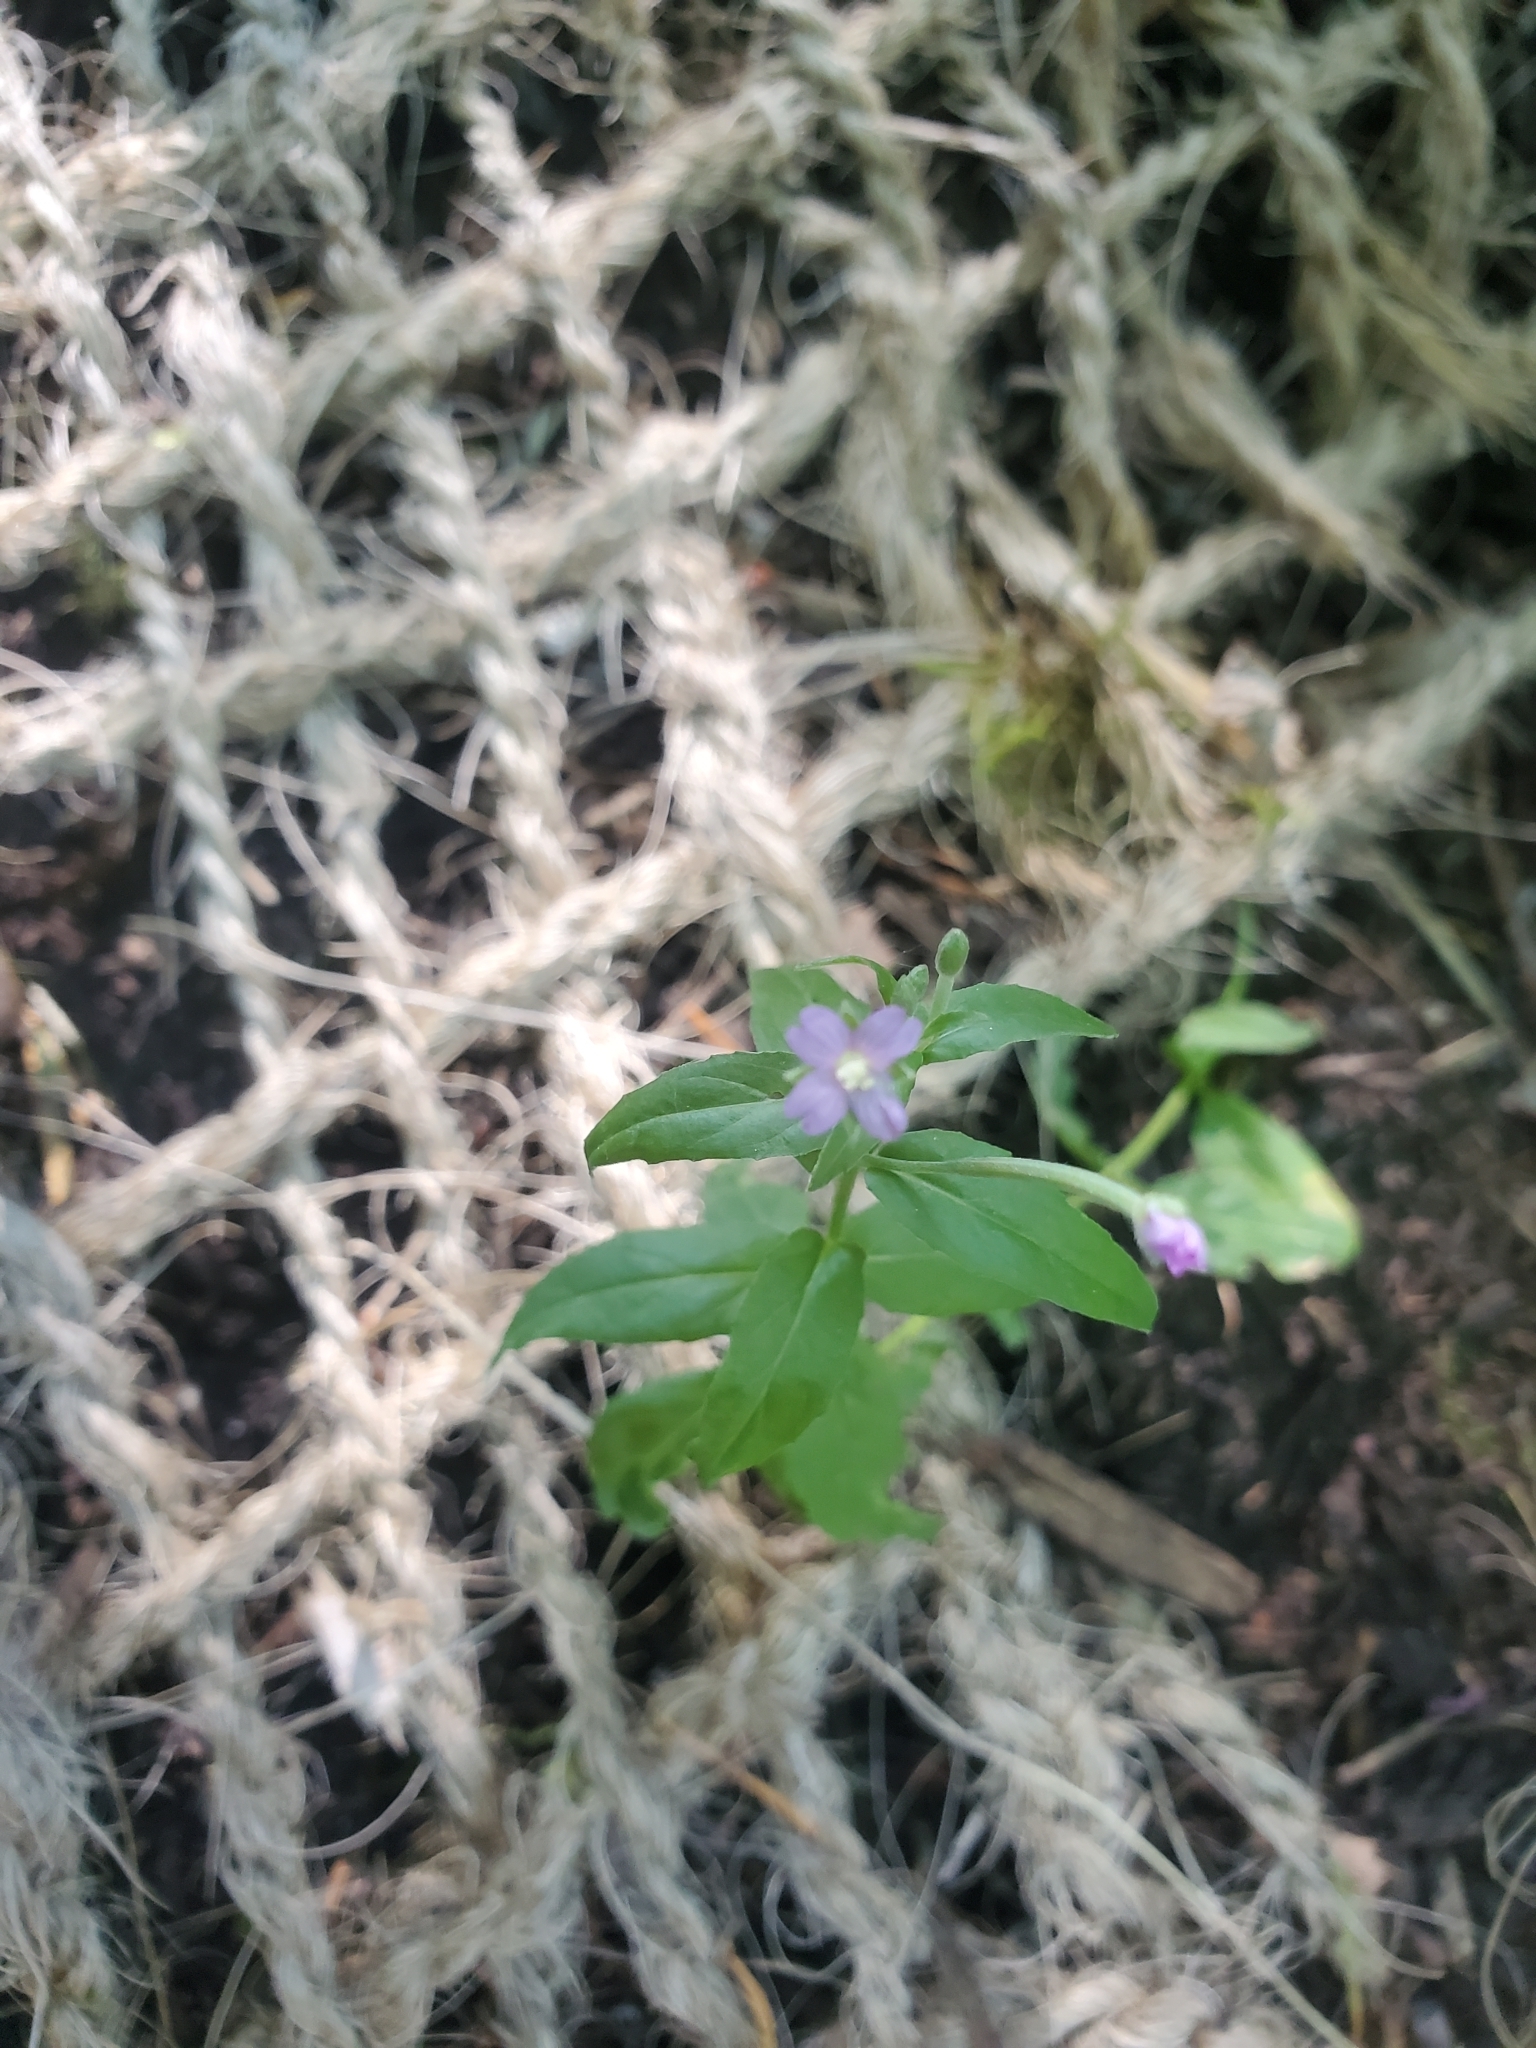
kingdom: Plantae
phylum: Tracheophyta
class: Magnoliopsida
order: Myrtales
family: Onagraceae
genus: Epilobium
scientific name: Epilobium ciliatum
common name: American willowherb
